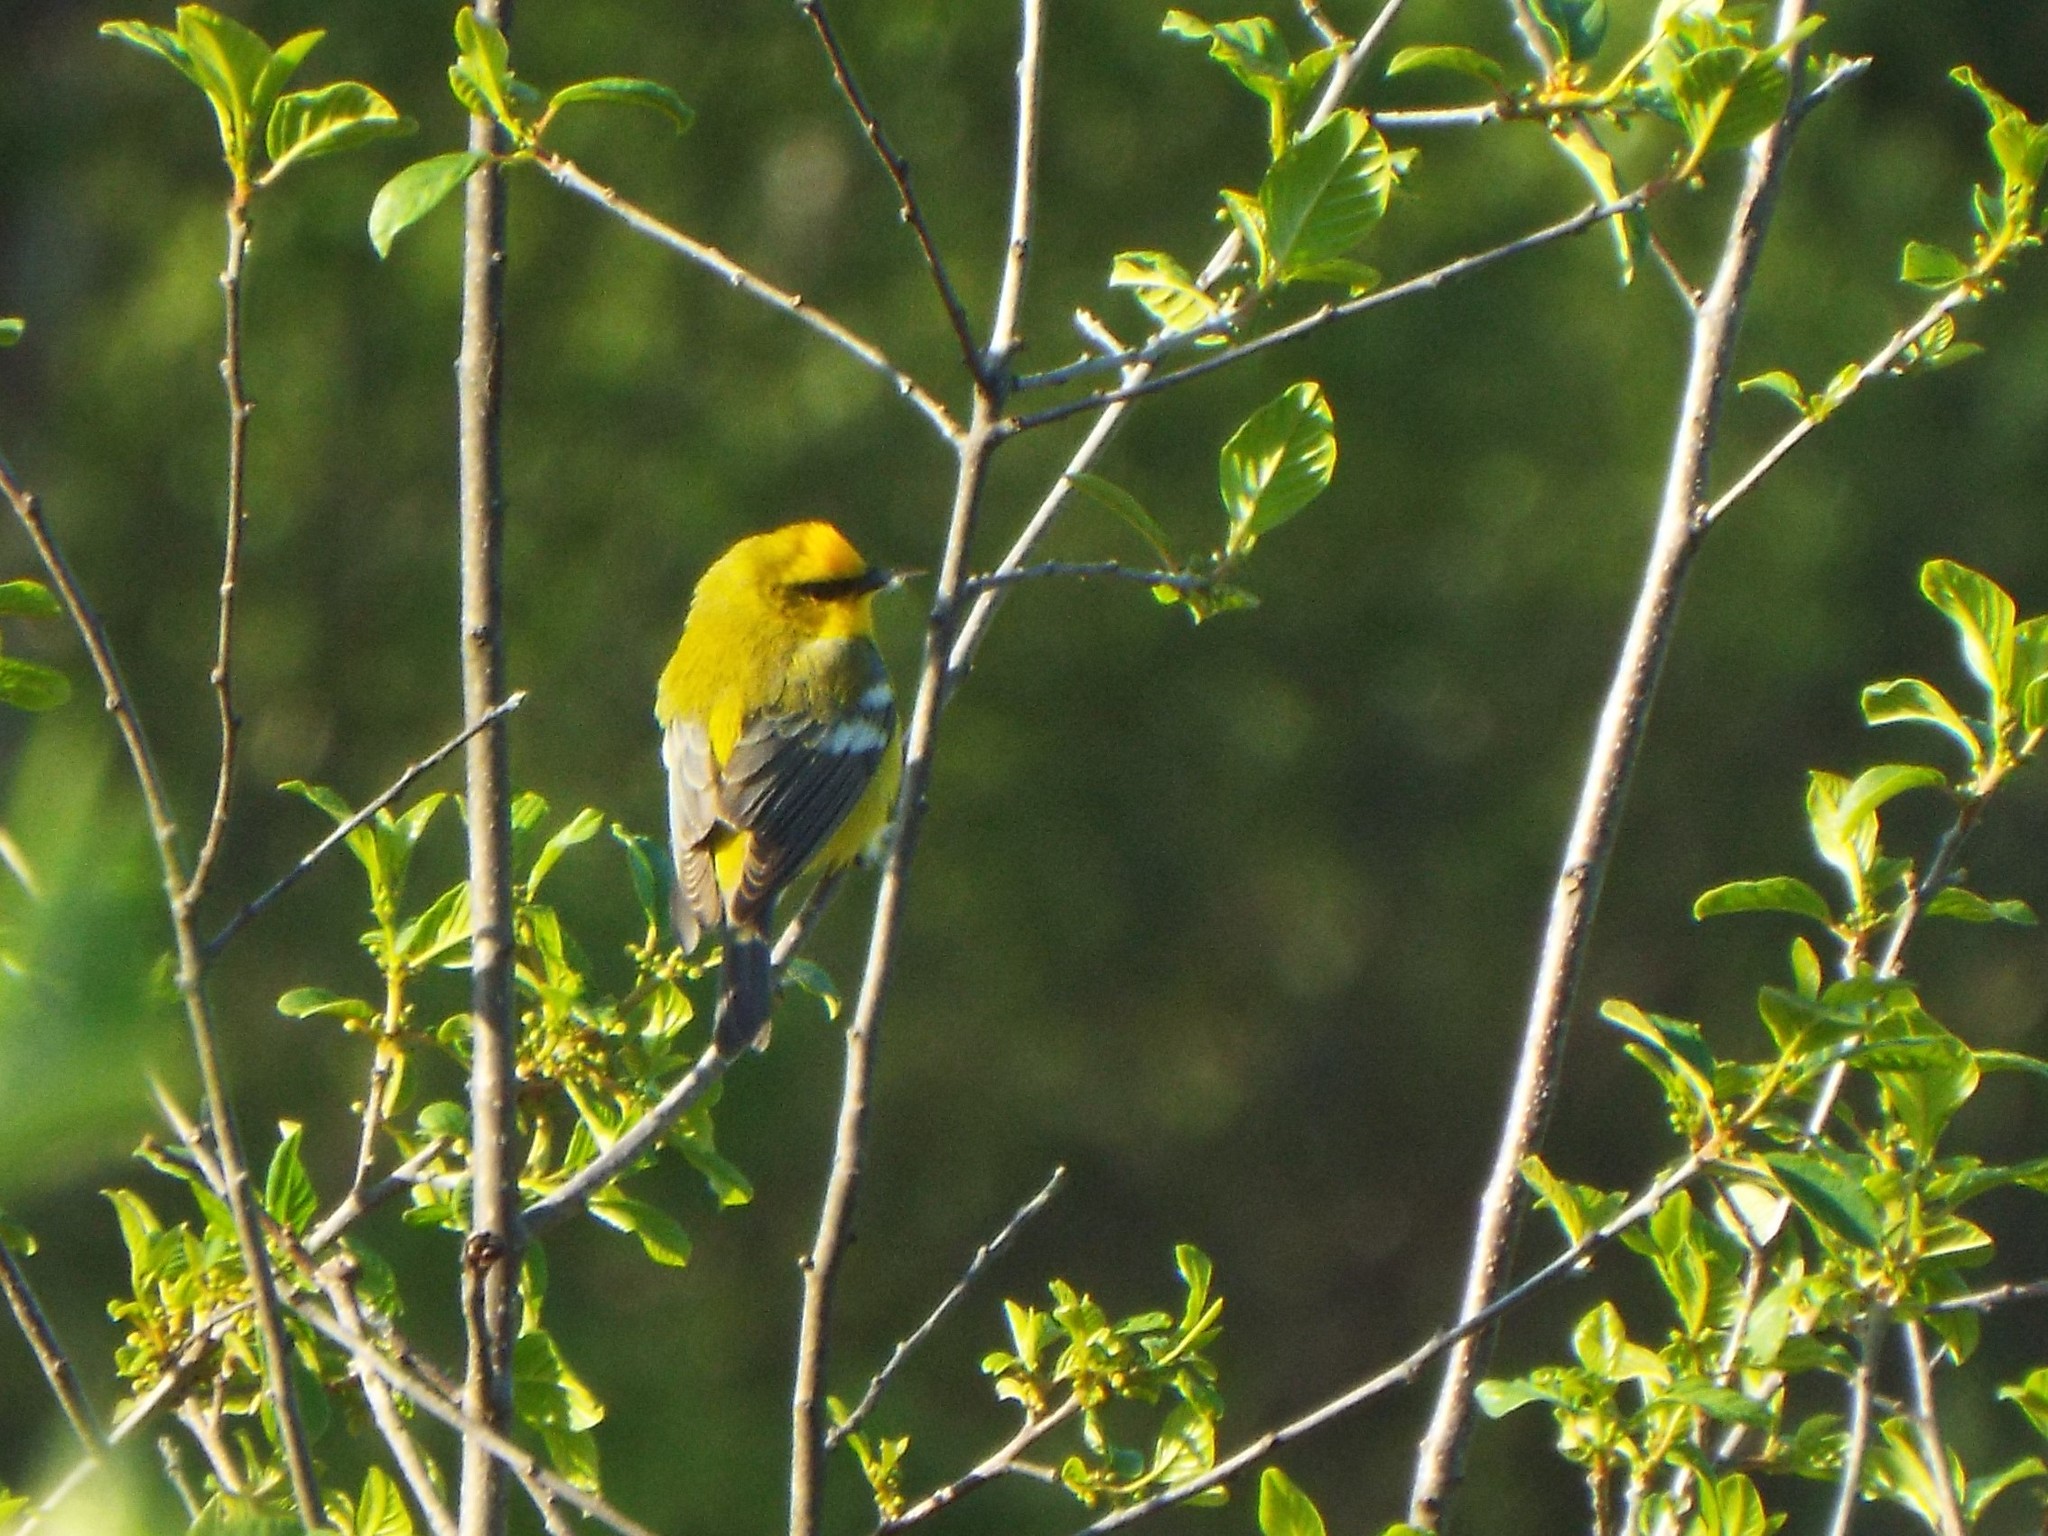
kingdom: Animalia
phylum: Chordata
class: Aves
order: Passeriformes
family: Parulidae
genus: Vermivora
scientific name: Vermivora cyanoptera
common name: Blue-winged warbler
